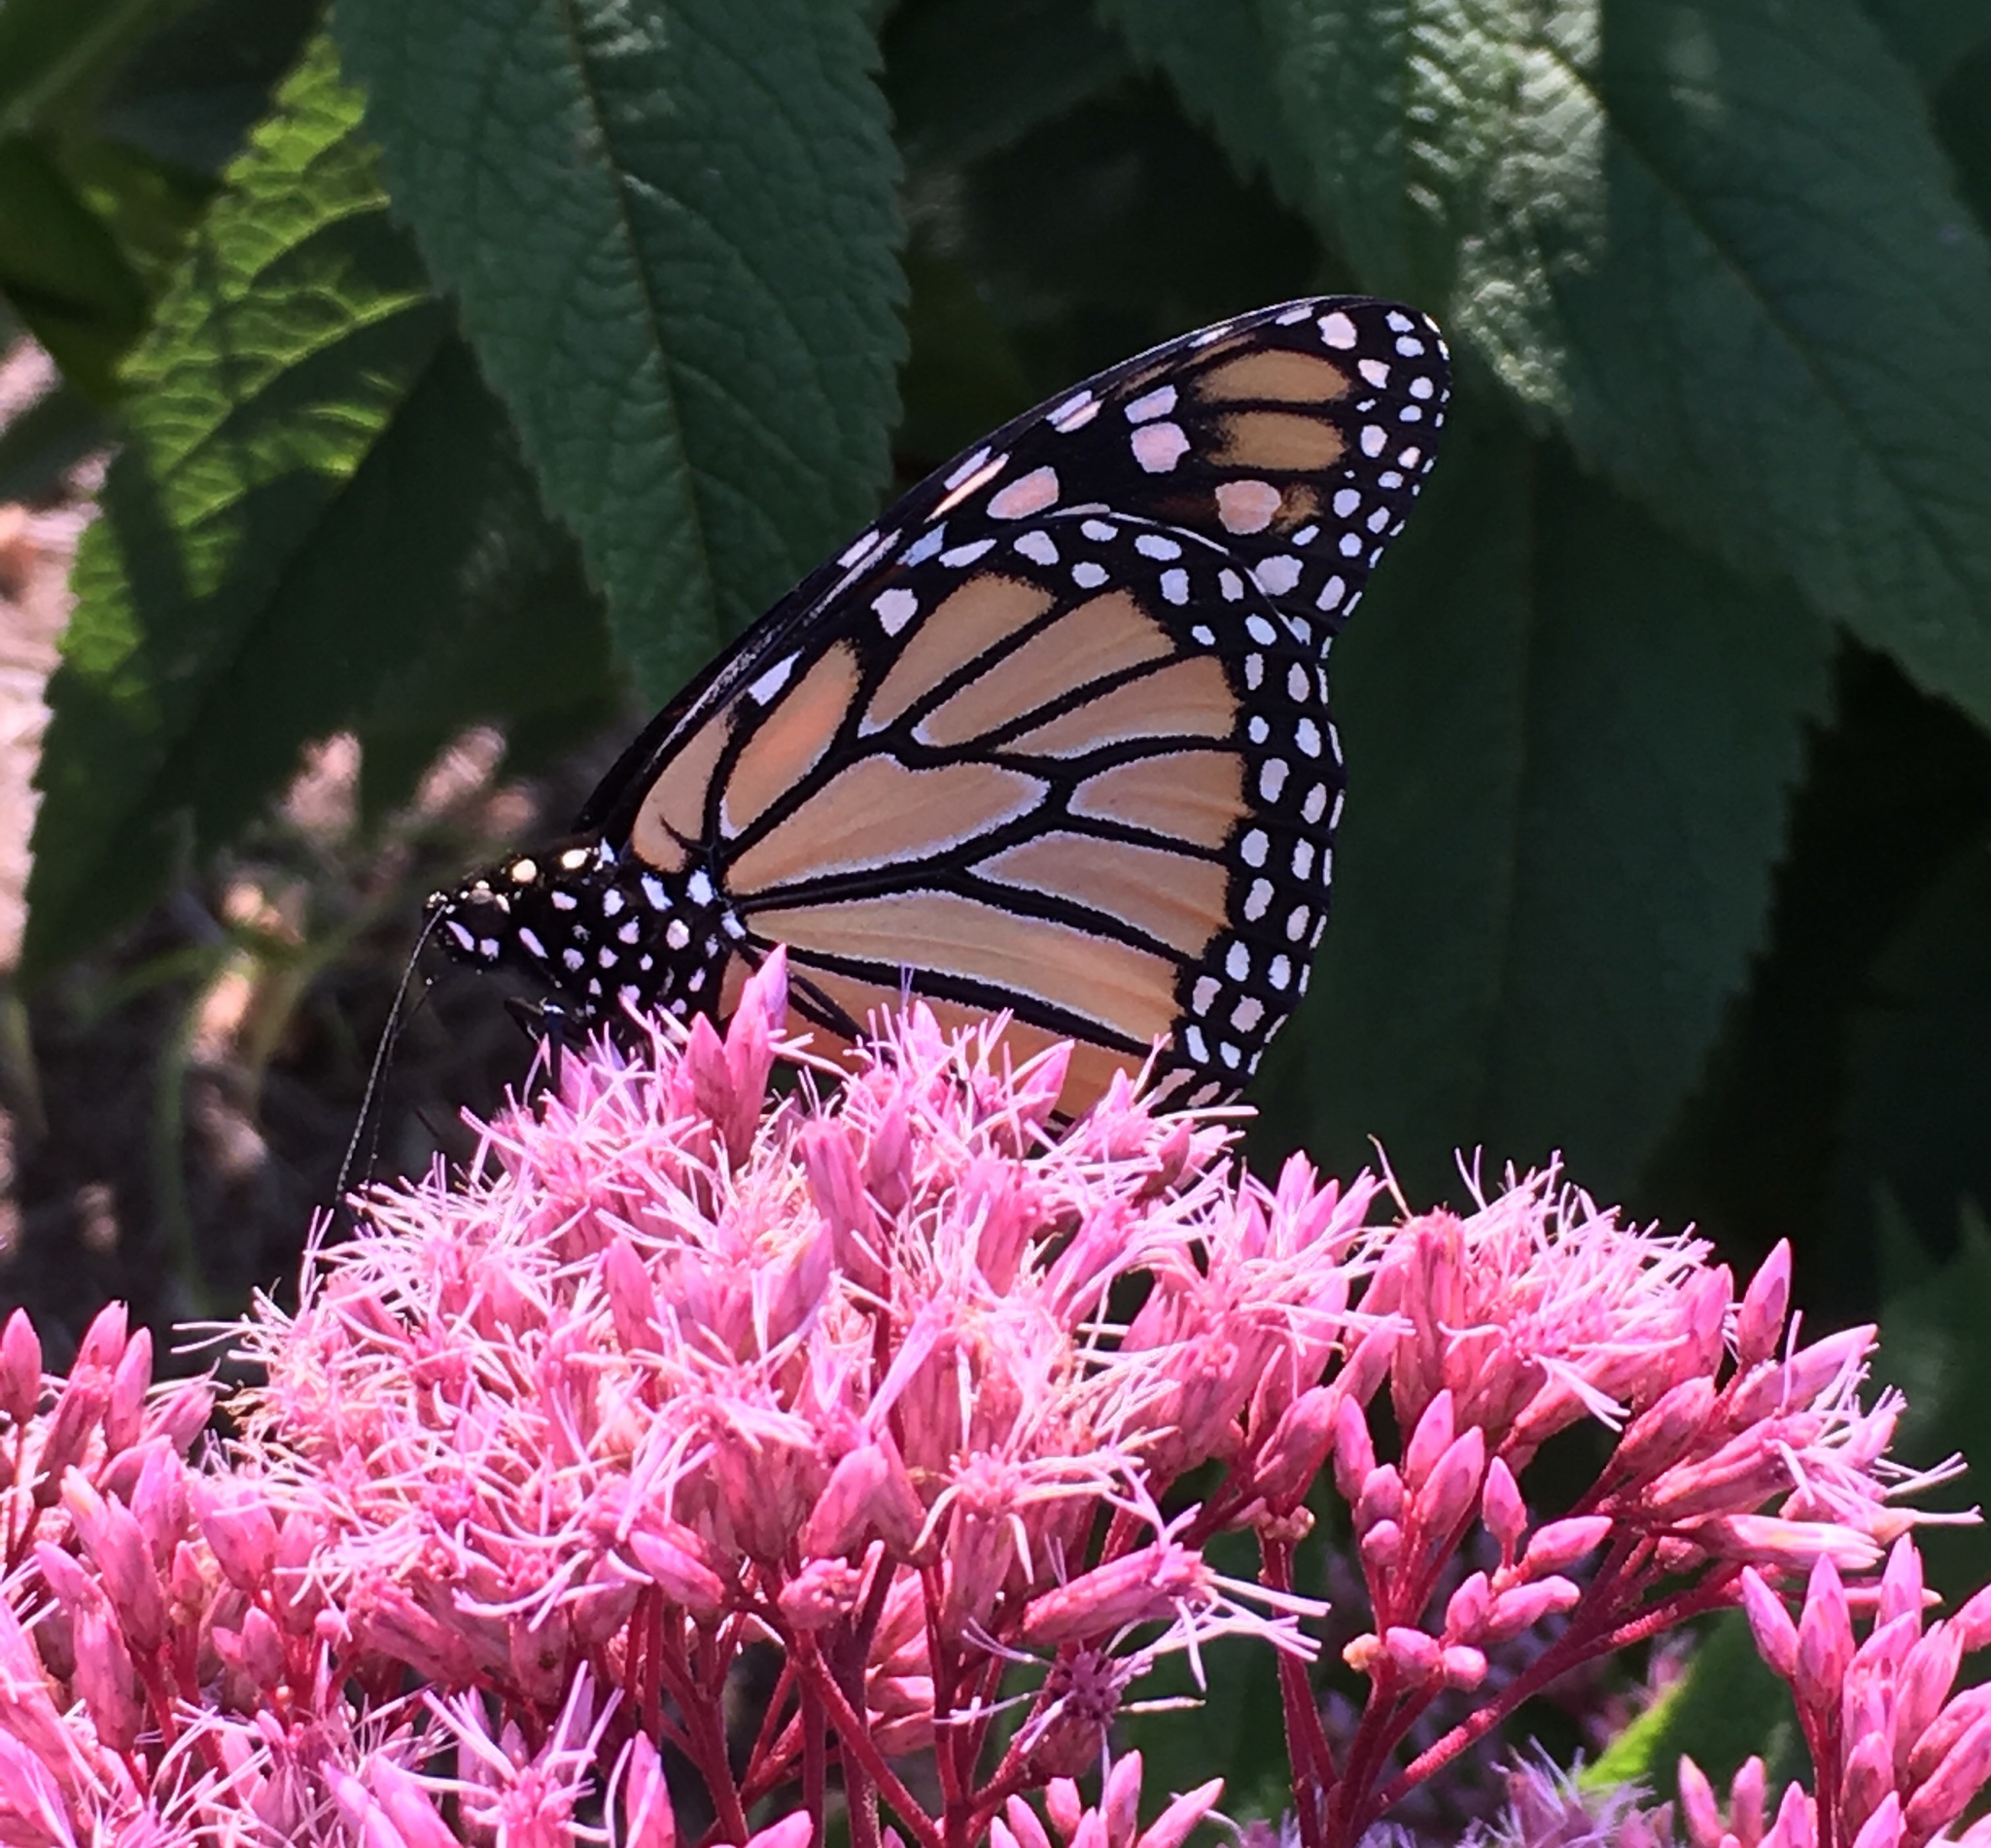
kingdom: Animalia
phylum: Arthropoda
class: Insecta
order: Lepidoptera
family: Nymphalidae
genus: Danaus
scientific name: Danaus plexippus
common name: Monarch
